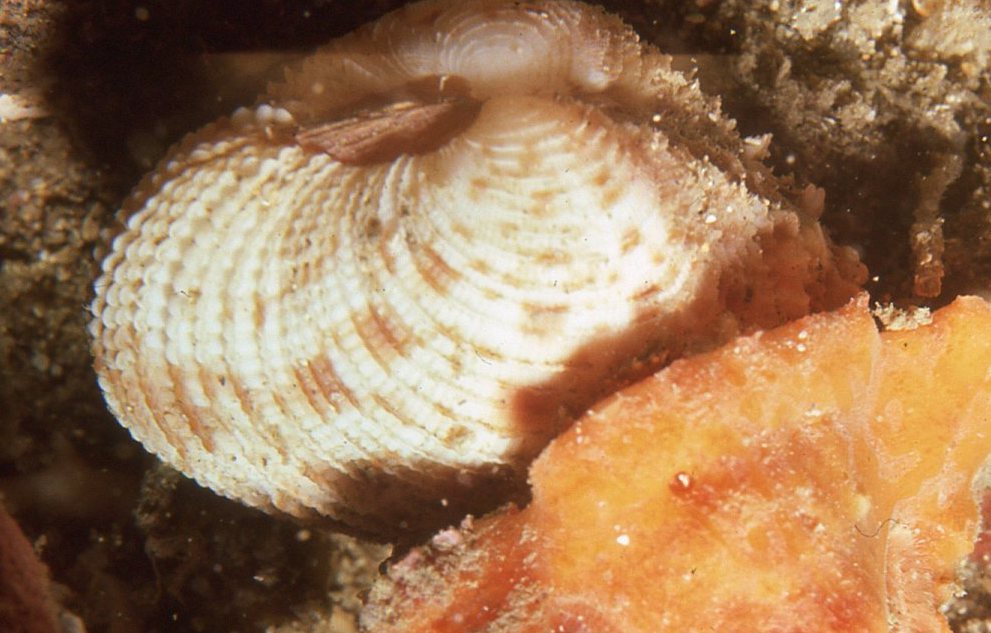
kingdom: Animalia
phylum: Mollusca
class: Bivalvia
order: Venerida
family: Veneridae
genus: Antigona
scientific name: Antigona persimilis
